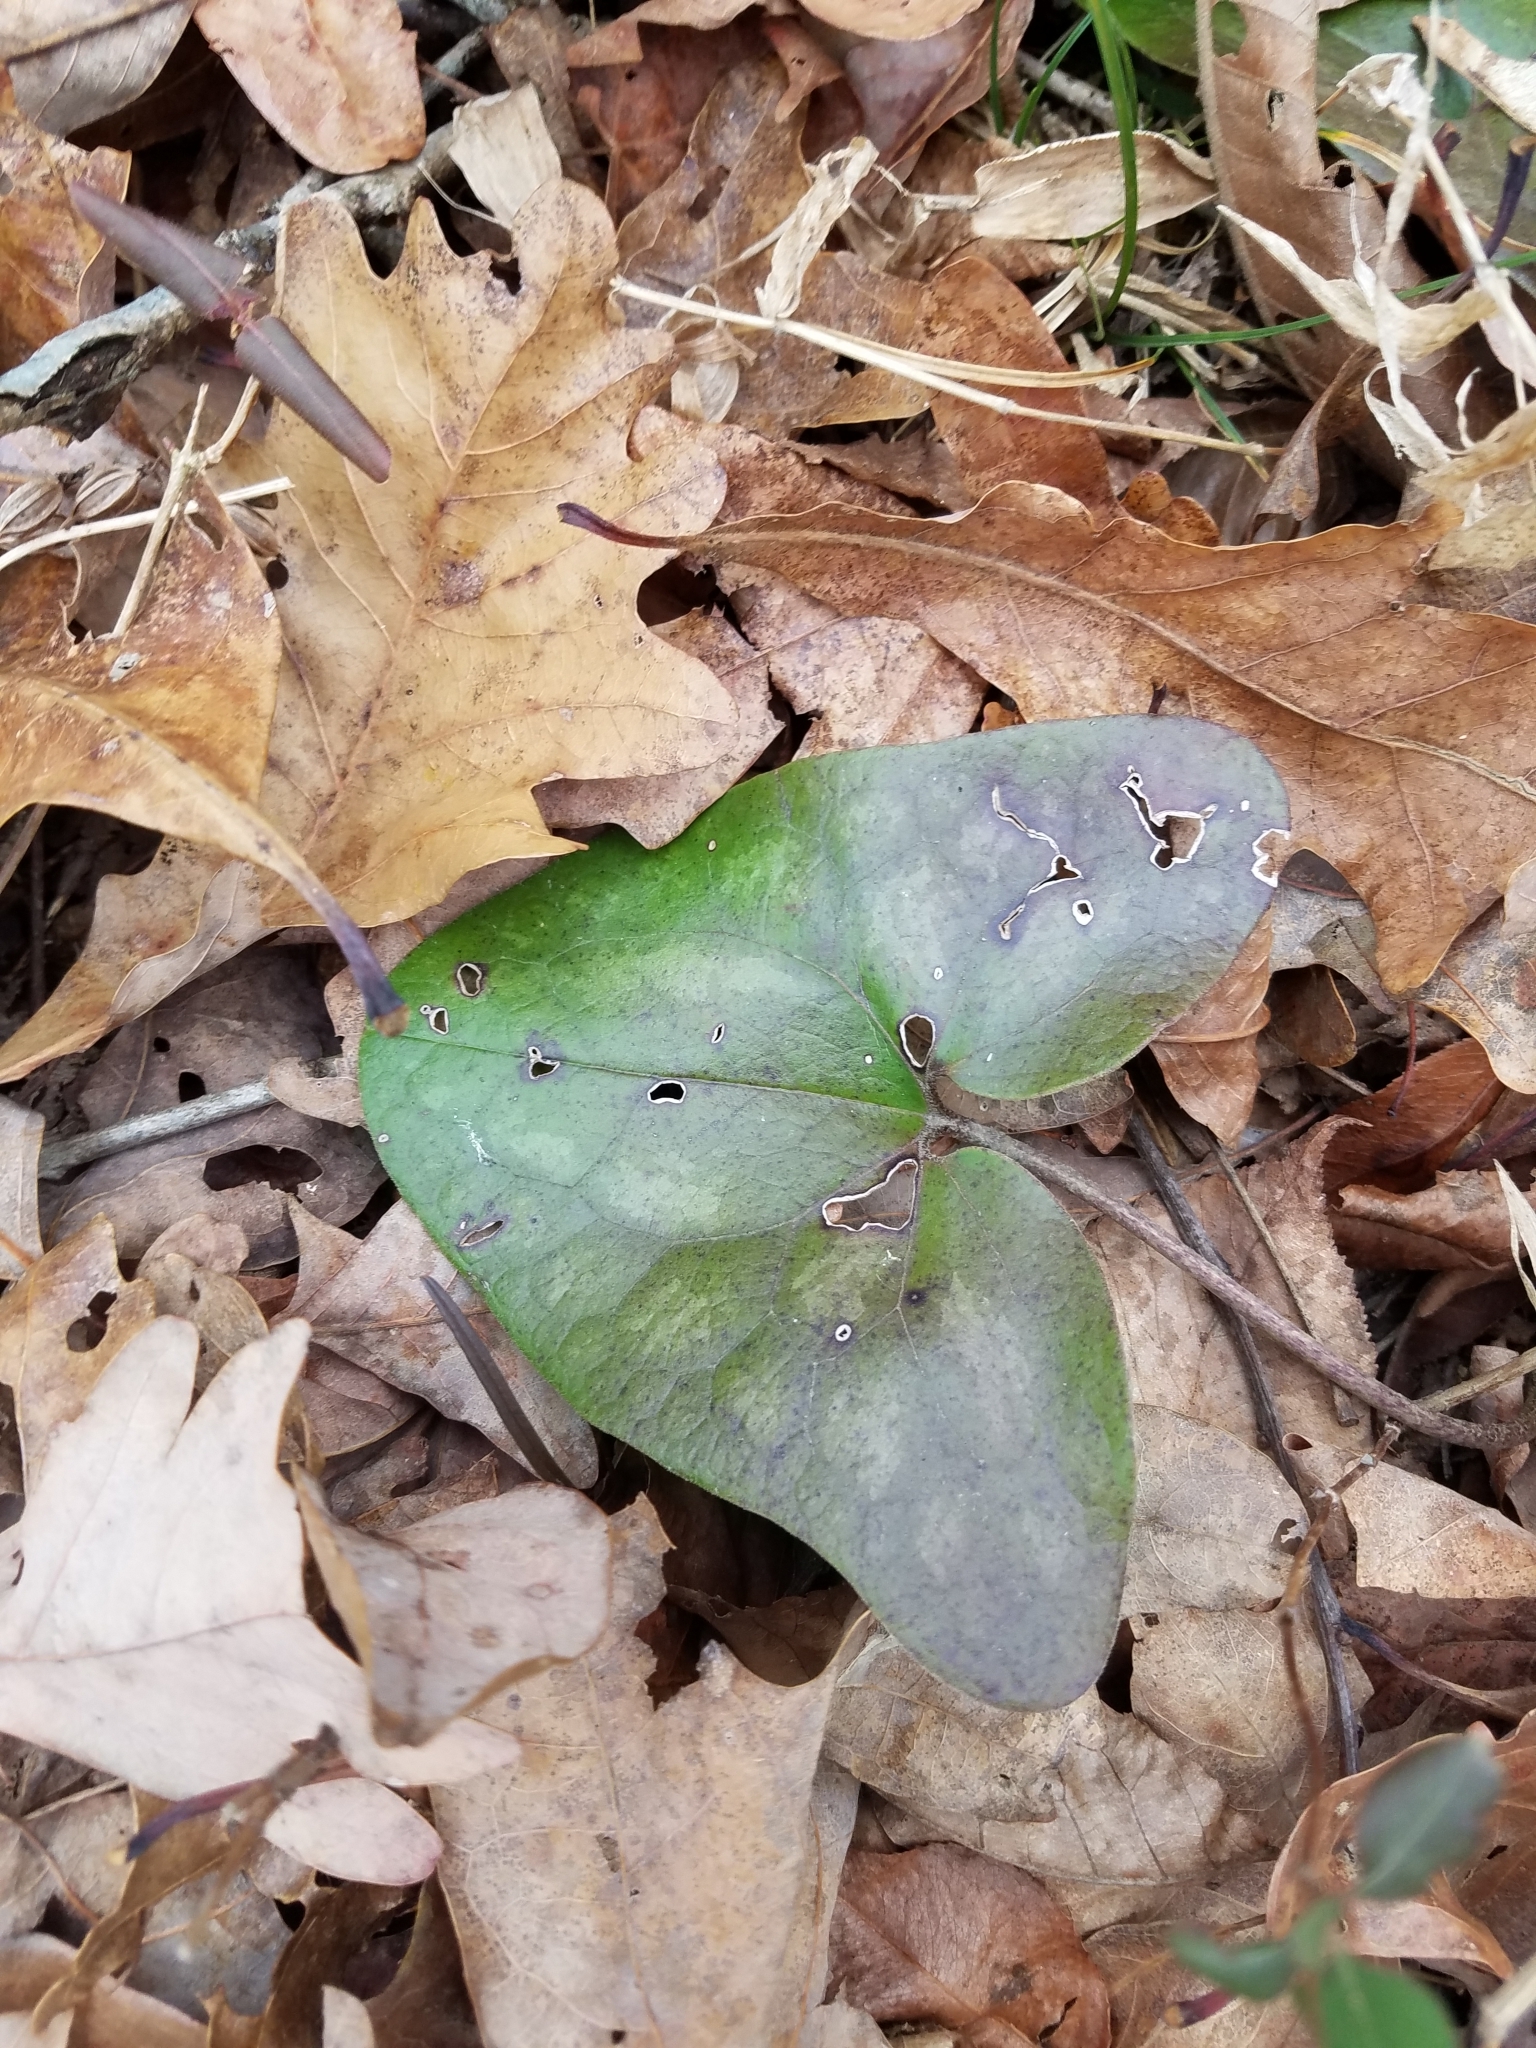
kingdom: Plantae
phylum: Tracheophyta
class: Magnoliopsida
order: Piperales
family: Aristolochiaceae
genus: Hexastylis
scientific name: Hexastylis arifolia
